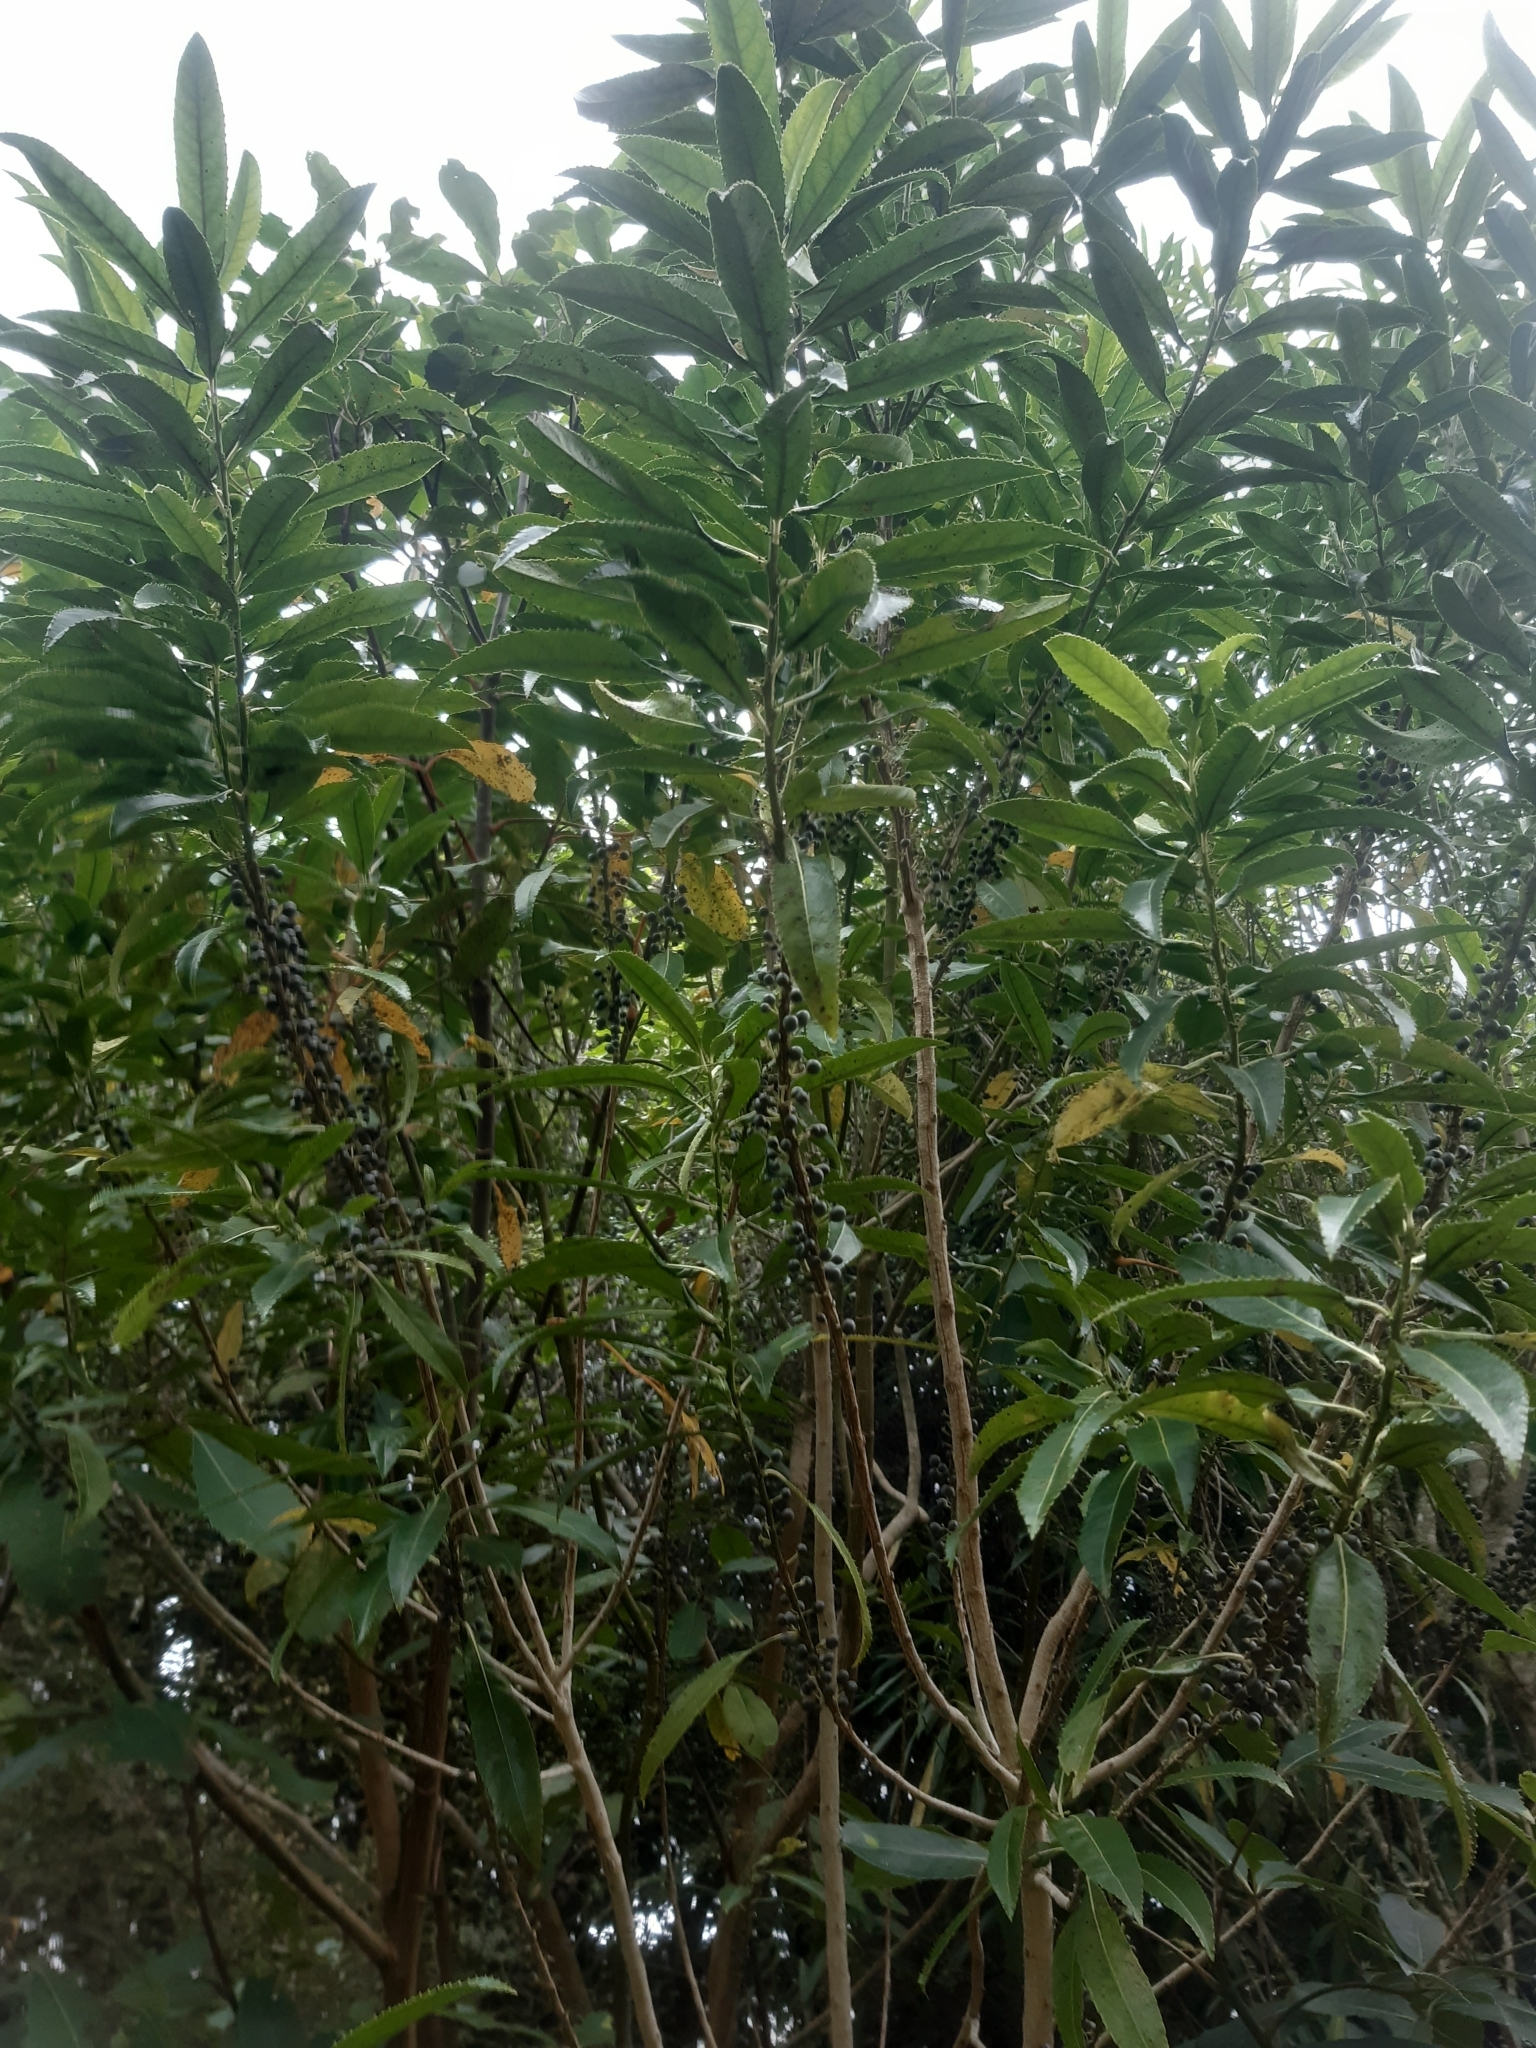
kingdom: Plantae
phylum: Tracheophyta
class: Magnoliopsida
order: Malpighiales
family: Violaceae
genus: Melicytus
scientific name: Melicytus lanceolatus
